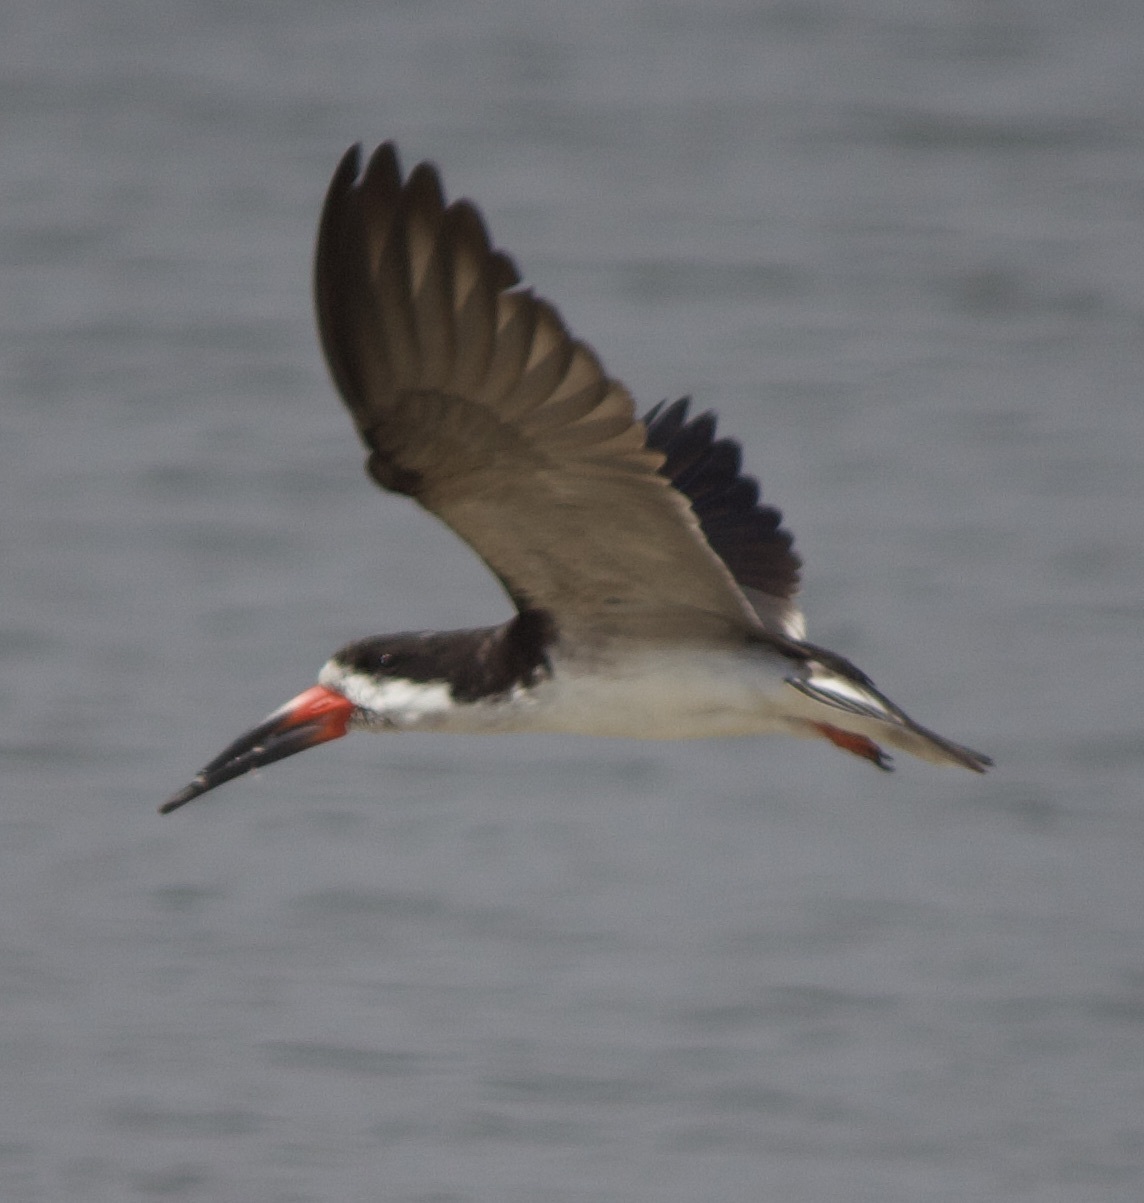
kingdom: Animalia
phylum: Chordata
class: Aves
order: Charadriiformes
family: Laridae
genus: Rynchops
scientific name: Rynchops niger
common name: Black skimmer
